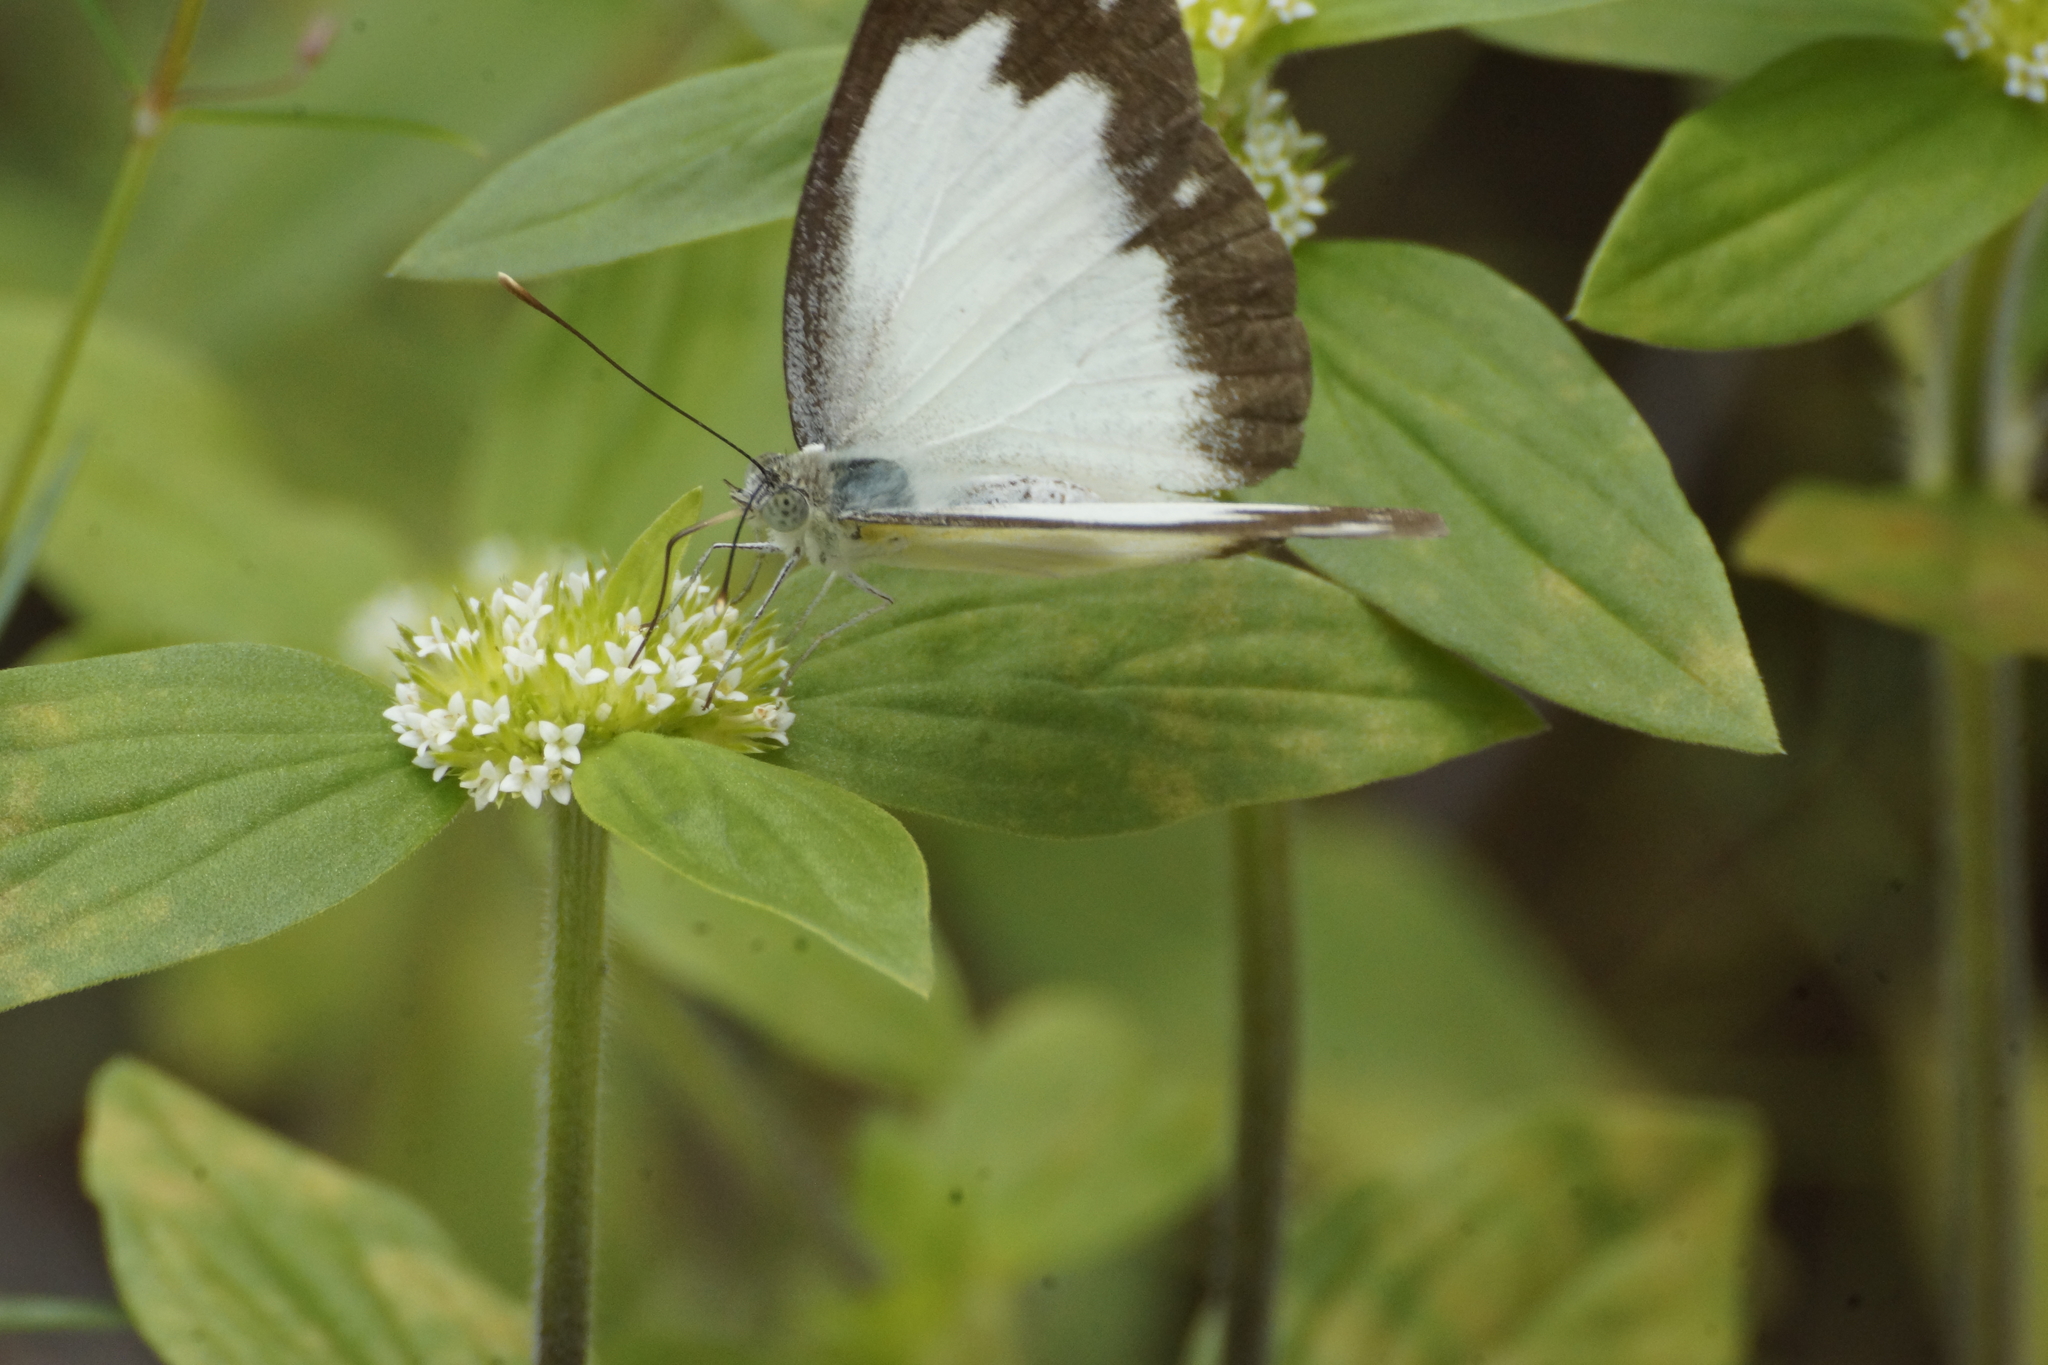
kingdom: Animalia
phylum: Arthropoda
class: Insecta
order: Lepidoptera
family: Pieridae
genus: Cepora
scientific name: Cepora perimale
